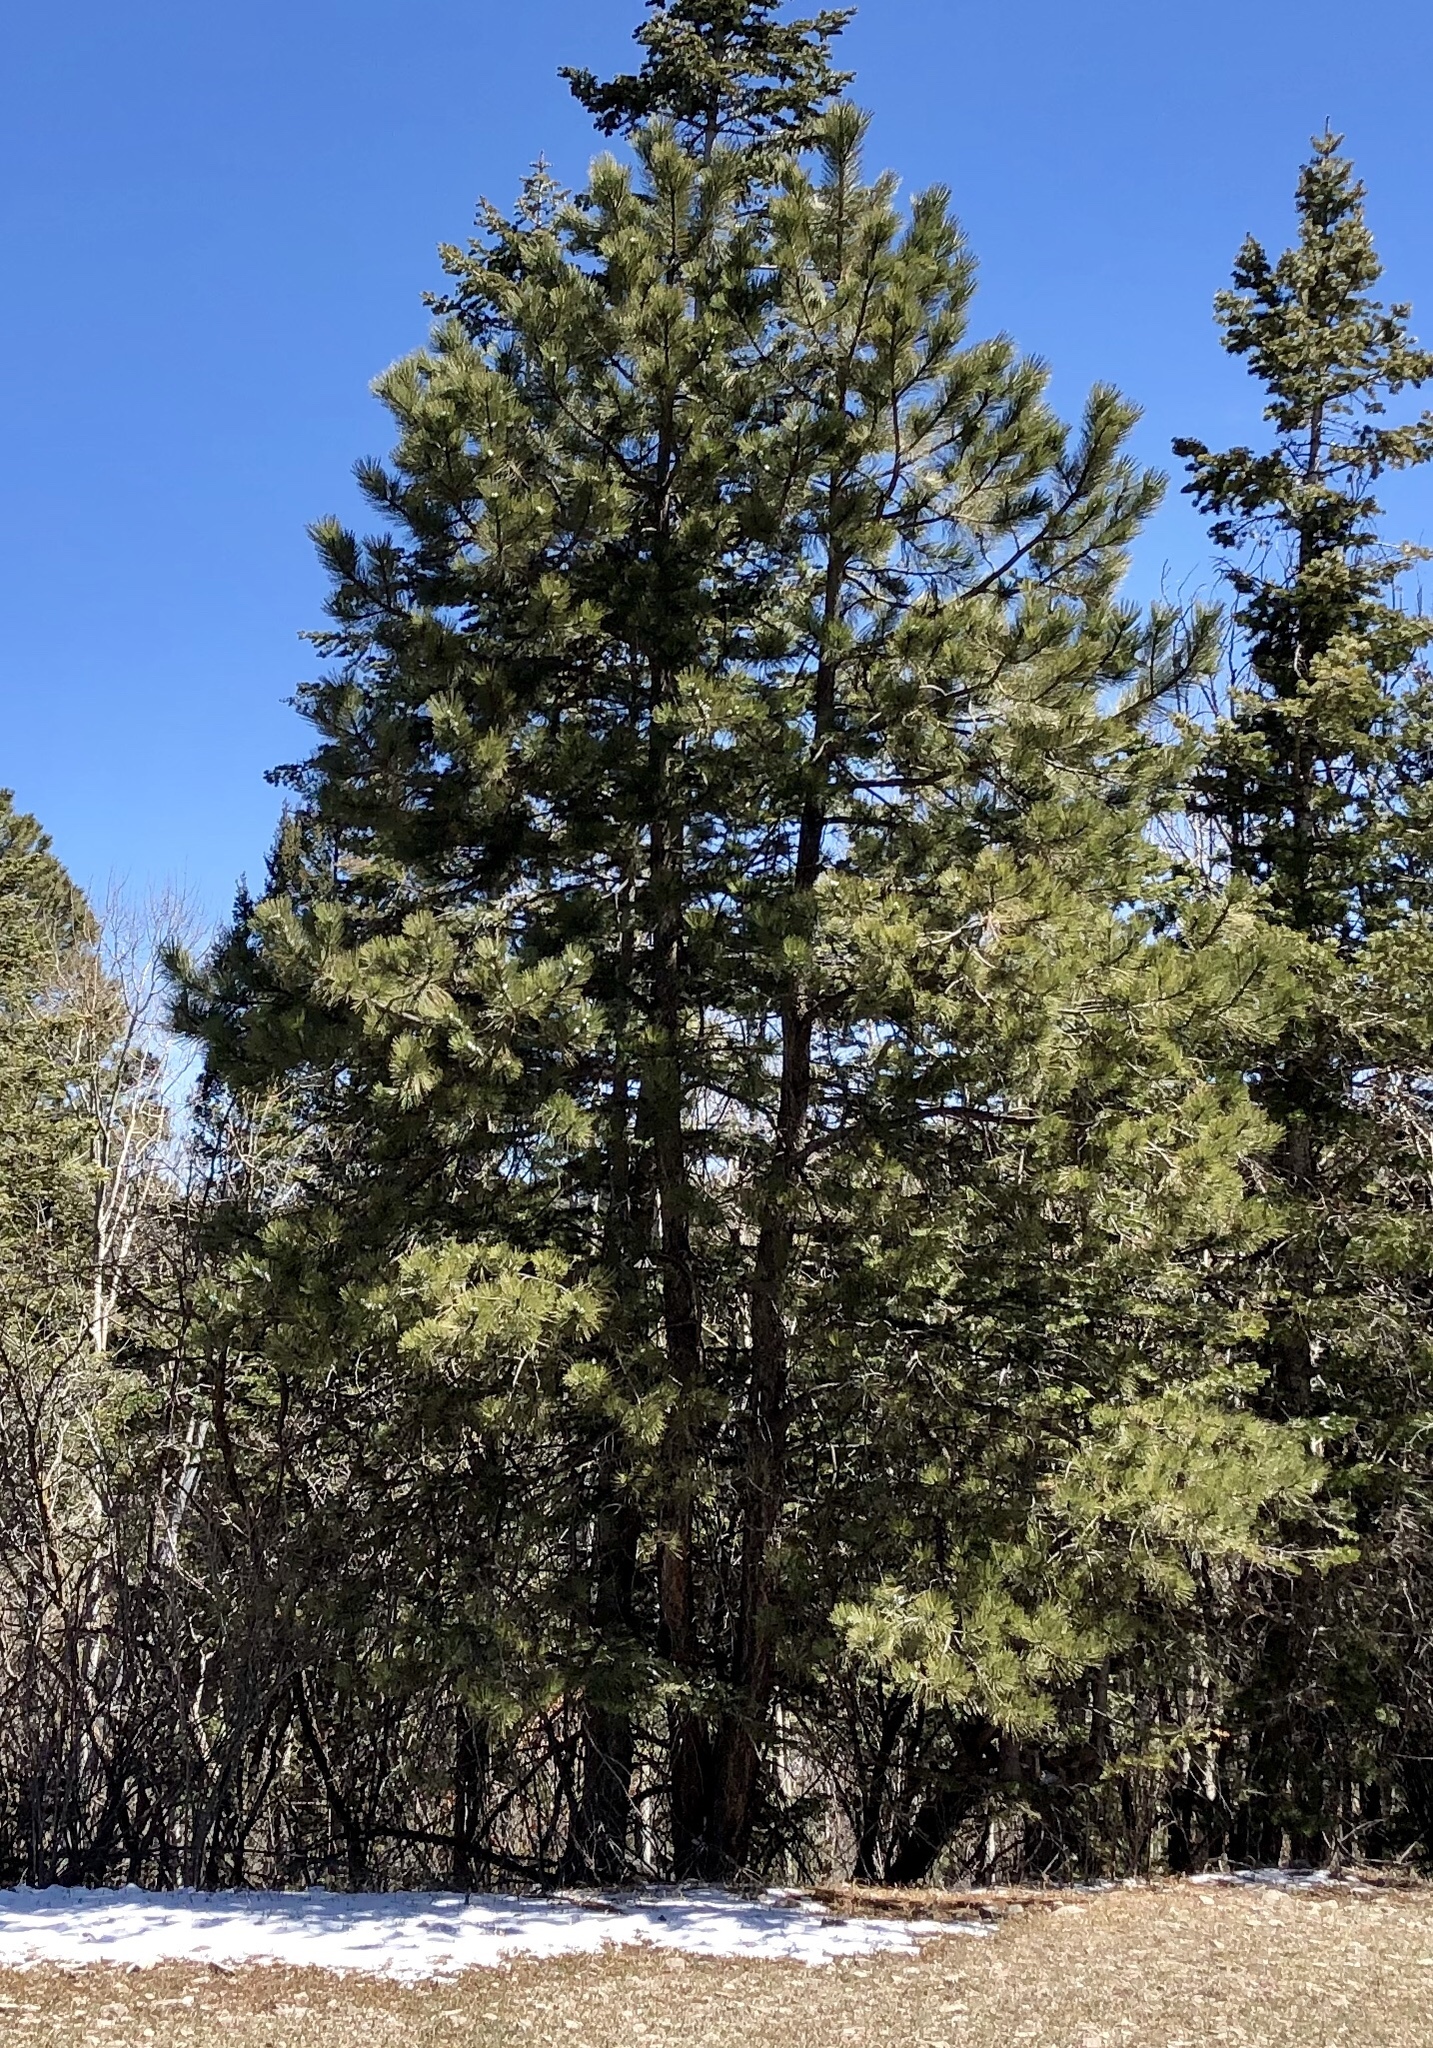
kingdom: Plantae
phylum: Tracheophyta
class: Pinopsida
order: Pinales
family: Pinaceae
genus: Pinus
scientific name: Pinus ponderosa
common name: Western yellow-pine
